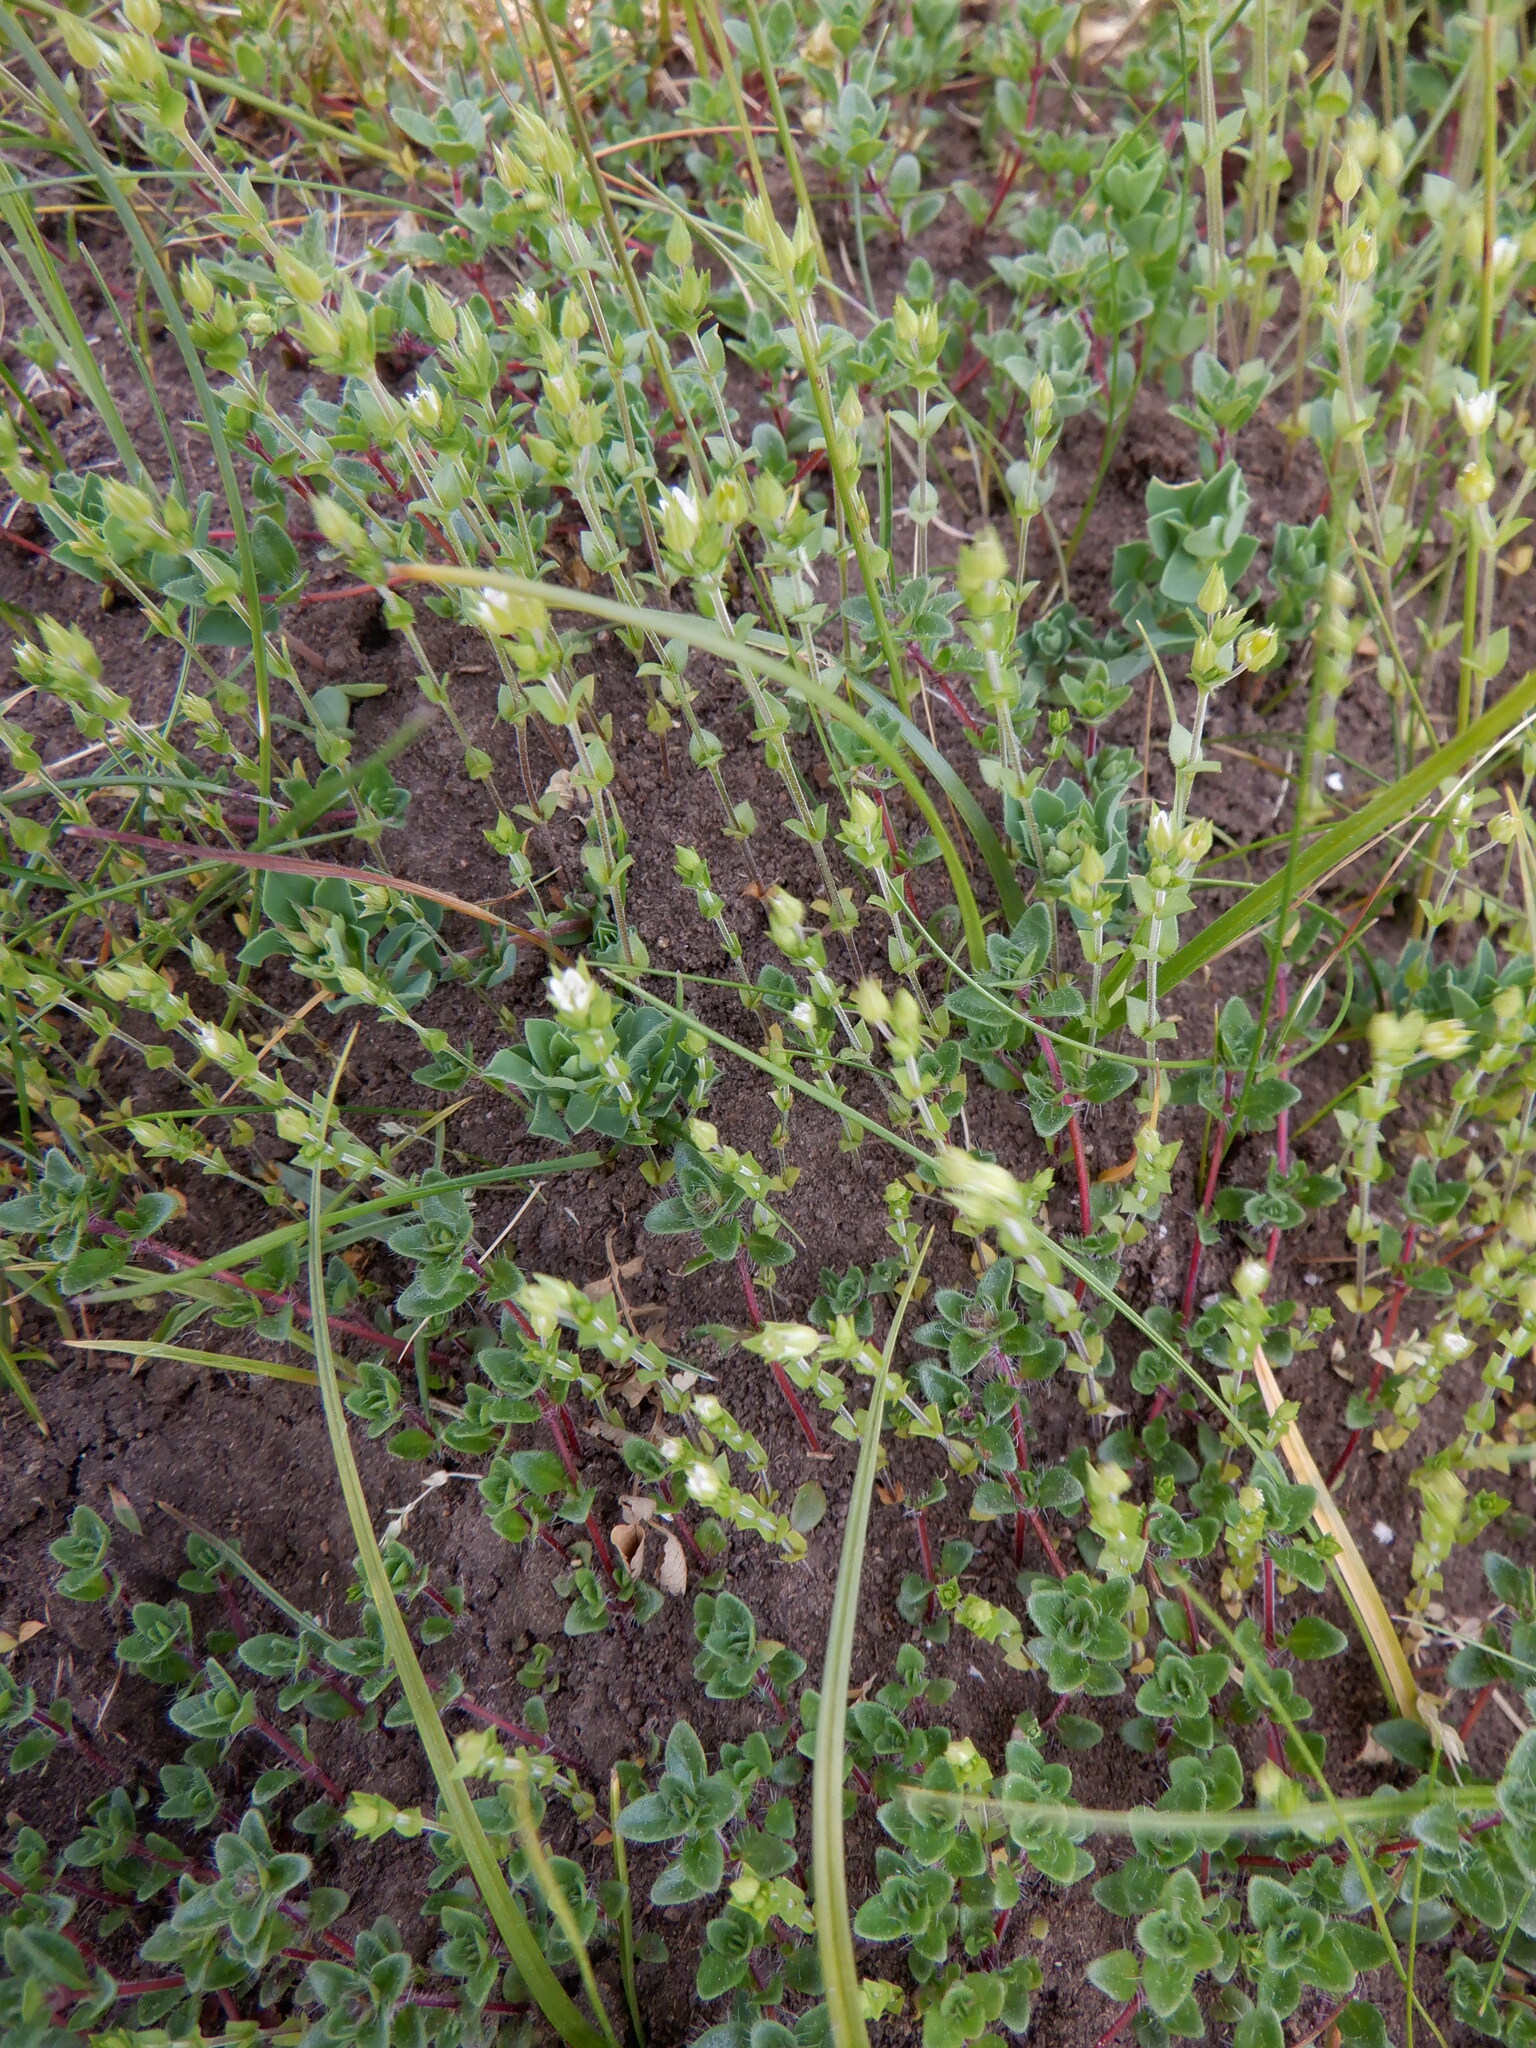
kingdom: Plantae
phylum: Tracheophyta
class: Magnoliopsida
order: Caryophyllales
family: Caryophyllaceae
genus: Arenaria
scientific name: Arenaria serpyllifolia
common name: Thyme-leaved sandwort
